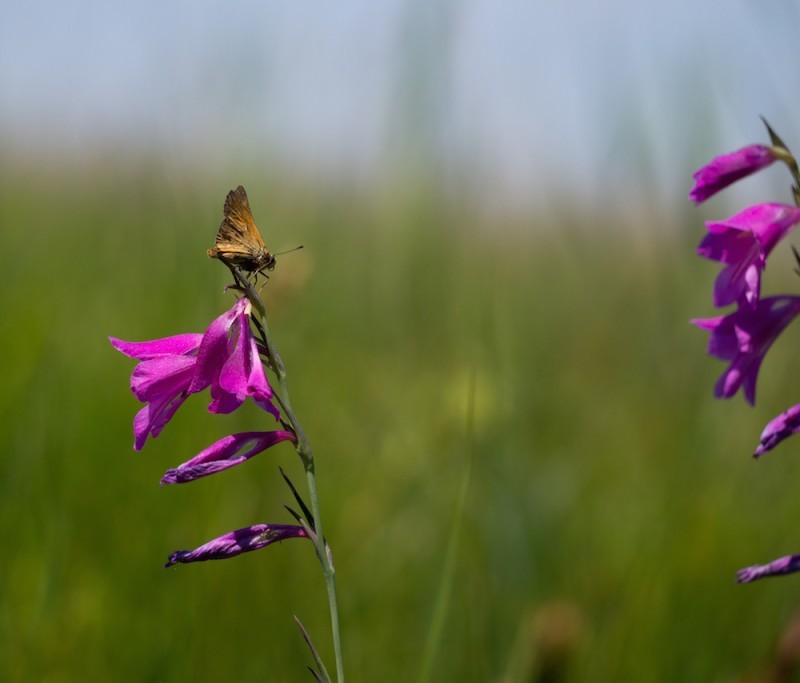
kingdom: Plantae
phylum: Tracheophyta
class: Liliopsida
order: Asparagales
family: Iridaceae
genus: Gladiolus
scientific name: Gladiolus palustris
